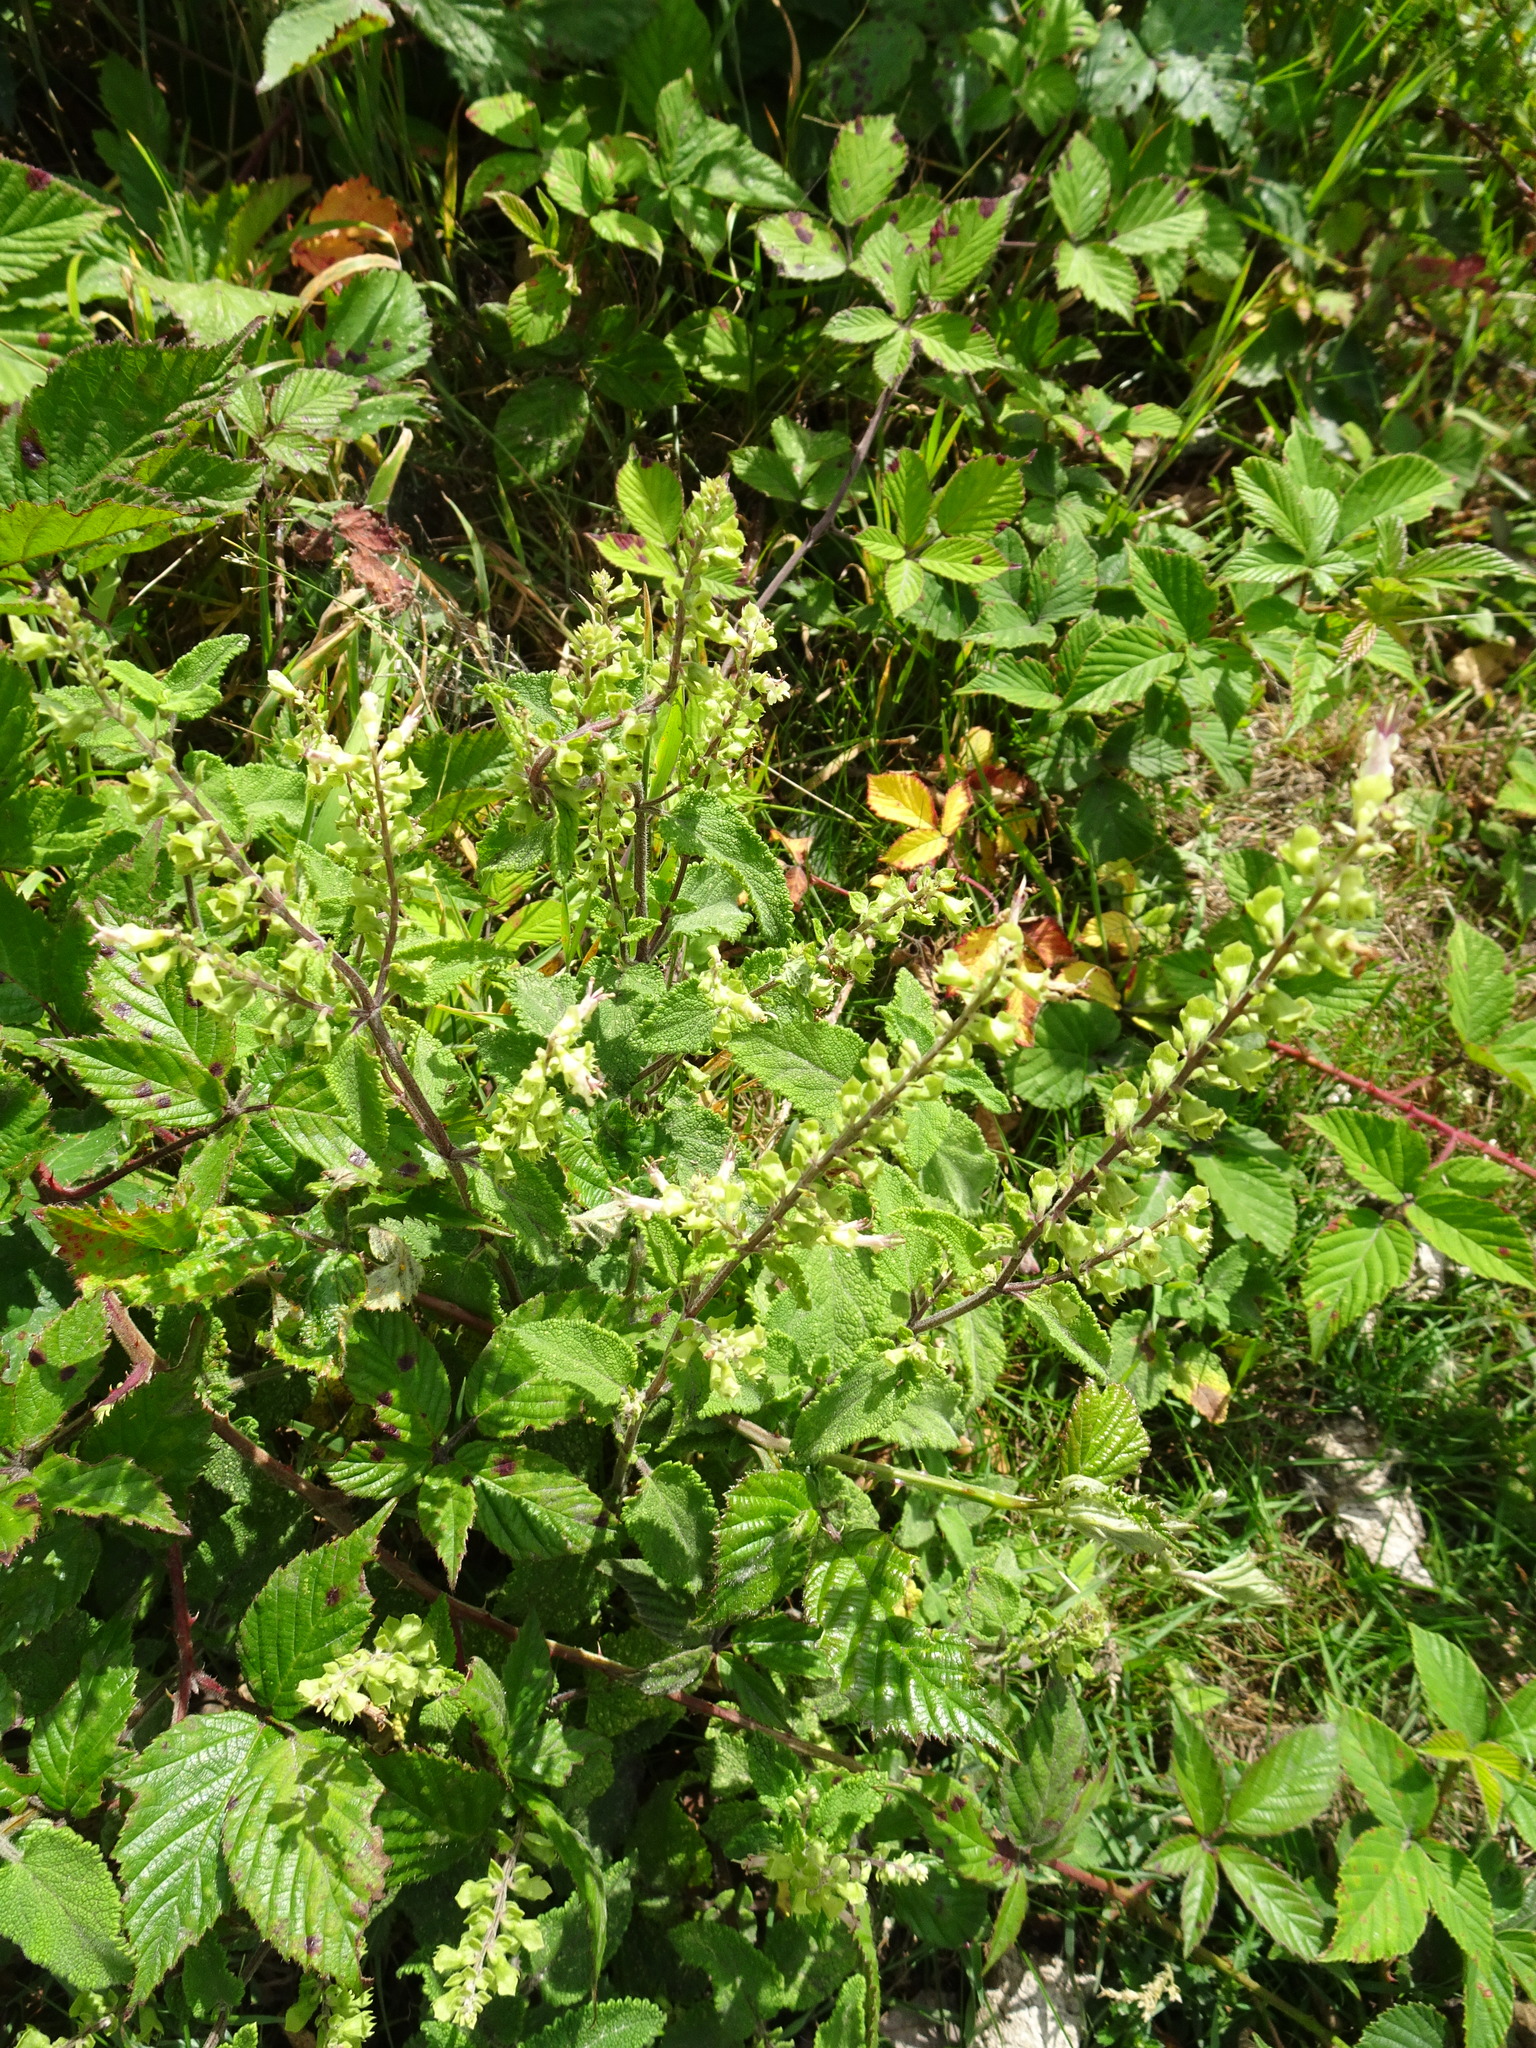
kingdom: Plantae
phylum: Tracheophyta
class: Magnoliopsida
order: Lamiales
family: Lamiaceae
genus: Teucrium
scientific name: Teucrium scorodonia
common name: Woodland germander
